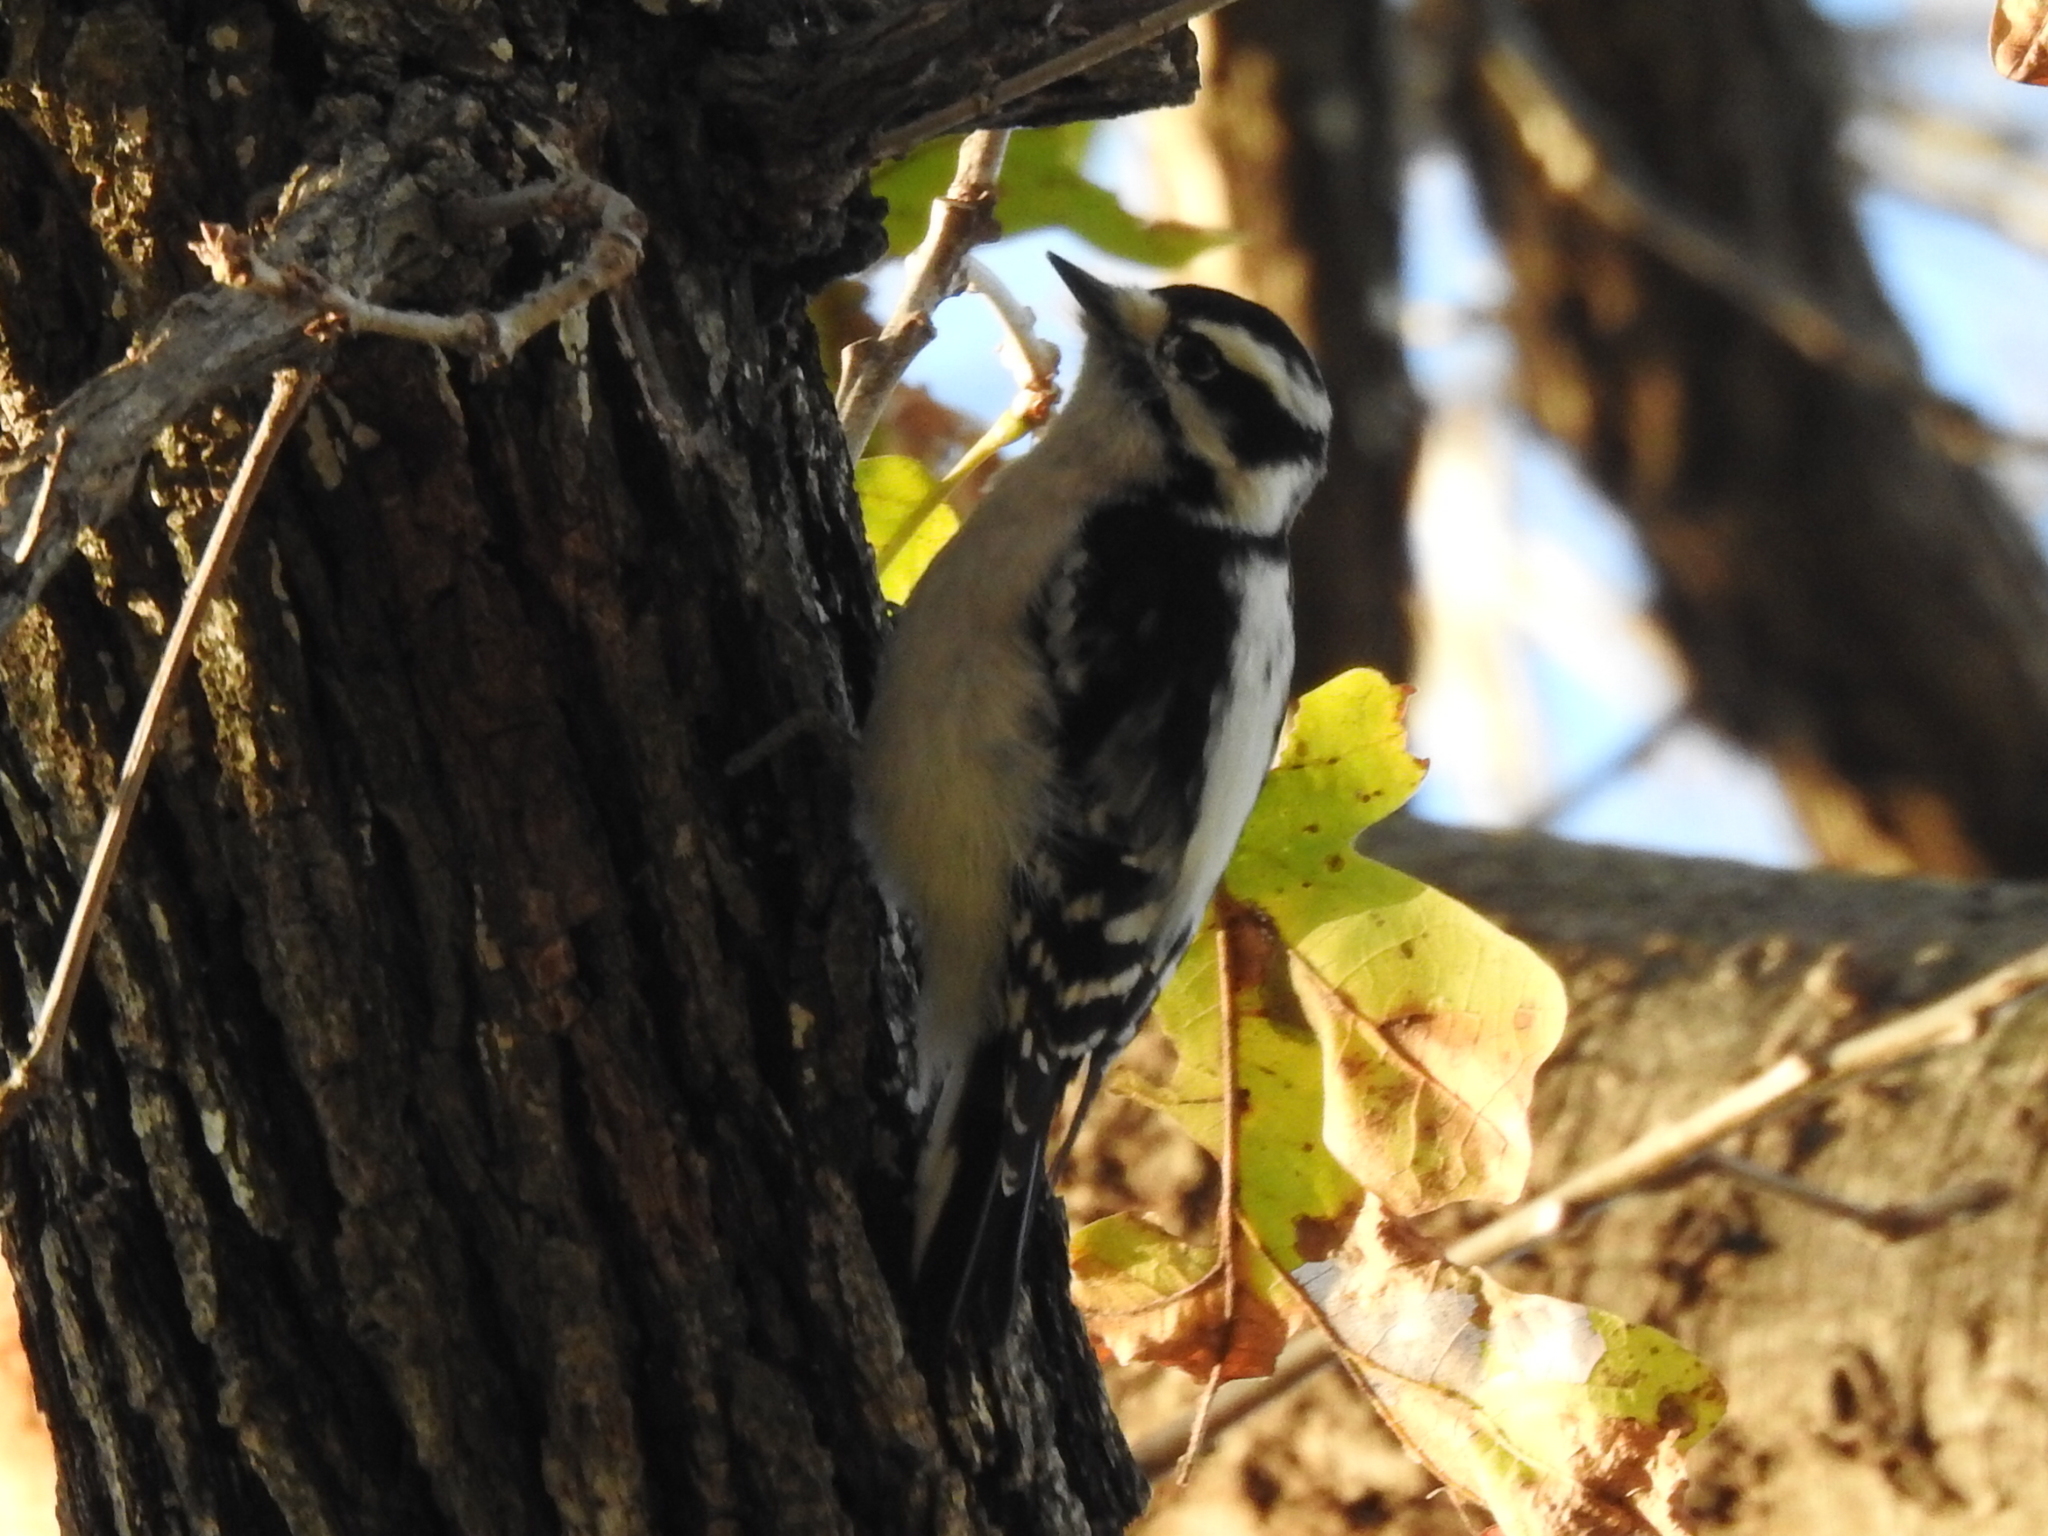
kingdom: Animalia
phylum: Chordata
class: Aves
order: Piciformes
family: Picidae
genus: Dryobates
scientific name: Dryobates pubescens
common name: Downy woodpecker
